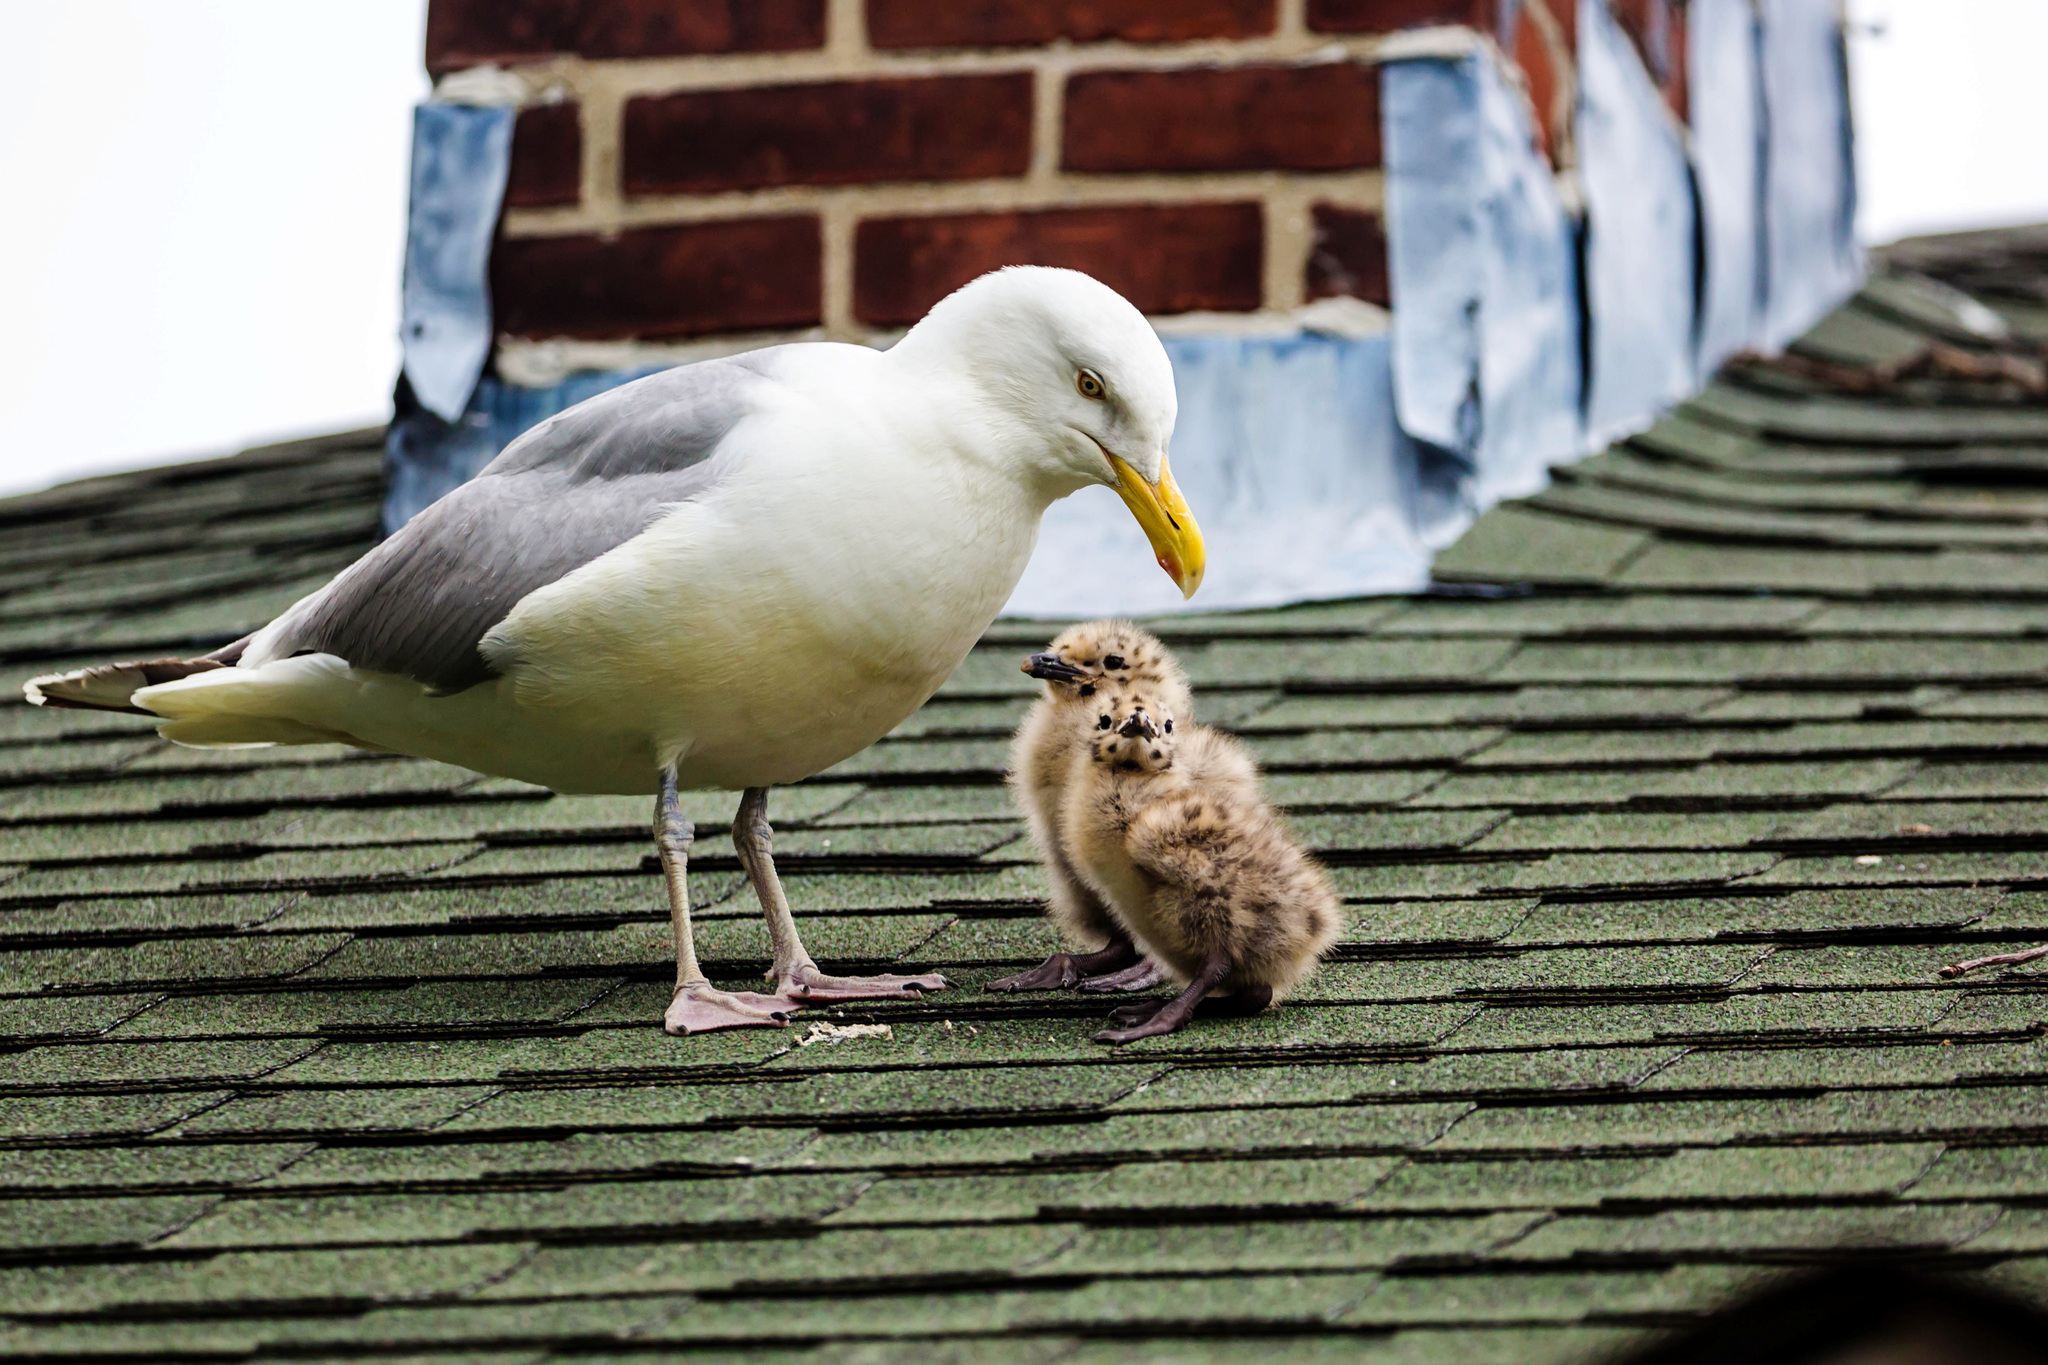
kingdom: Animalia
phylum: Chordata
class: Aves
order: Charadriiformes
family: Laridae
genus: Larus
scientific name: Larus argentatus
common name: Herring gull
